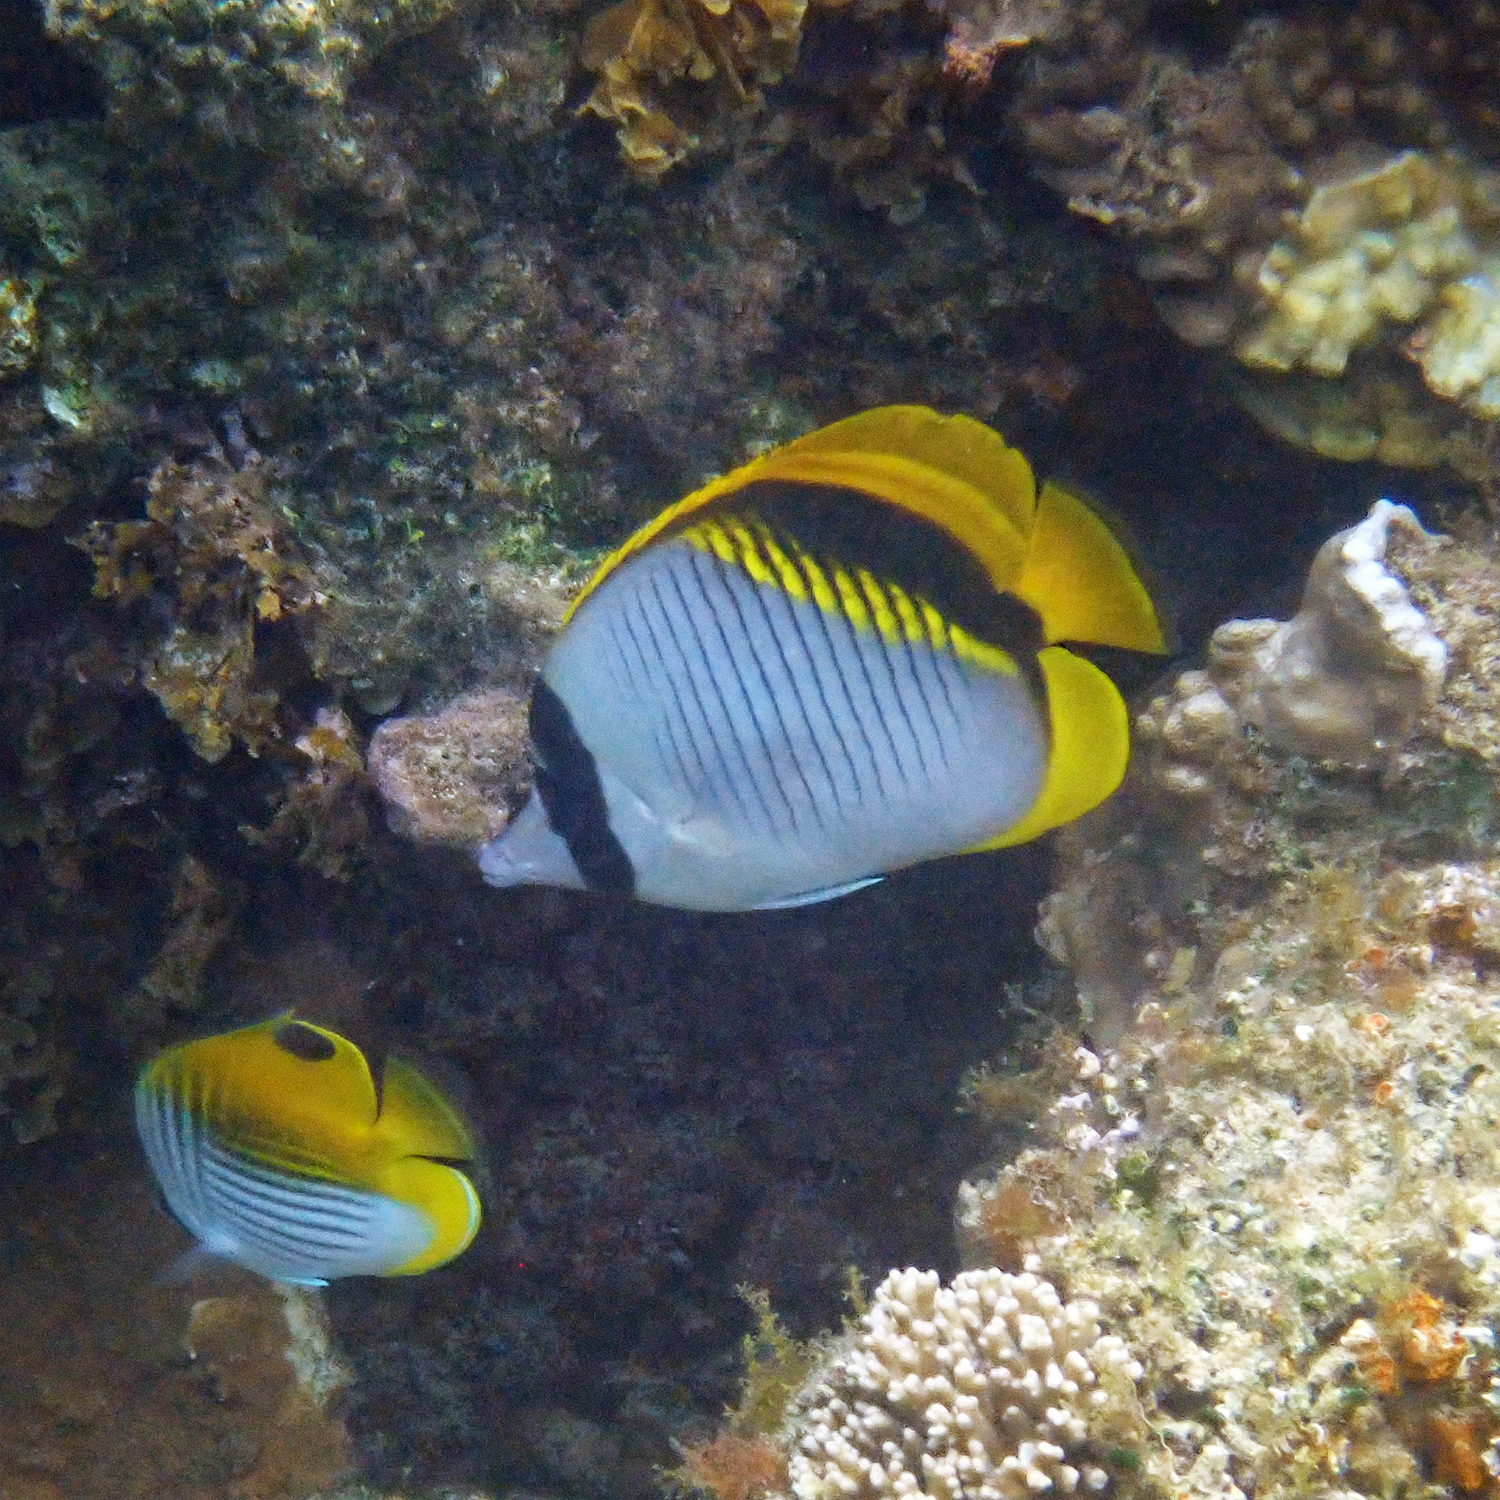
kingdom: Animalia
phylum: Chordata
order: Perciformes
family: Chaetodontidae
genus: Chaetodon
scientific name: Chaetodon lineolatus
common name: Lined butterflyfish
